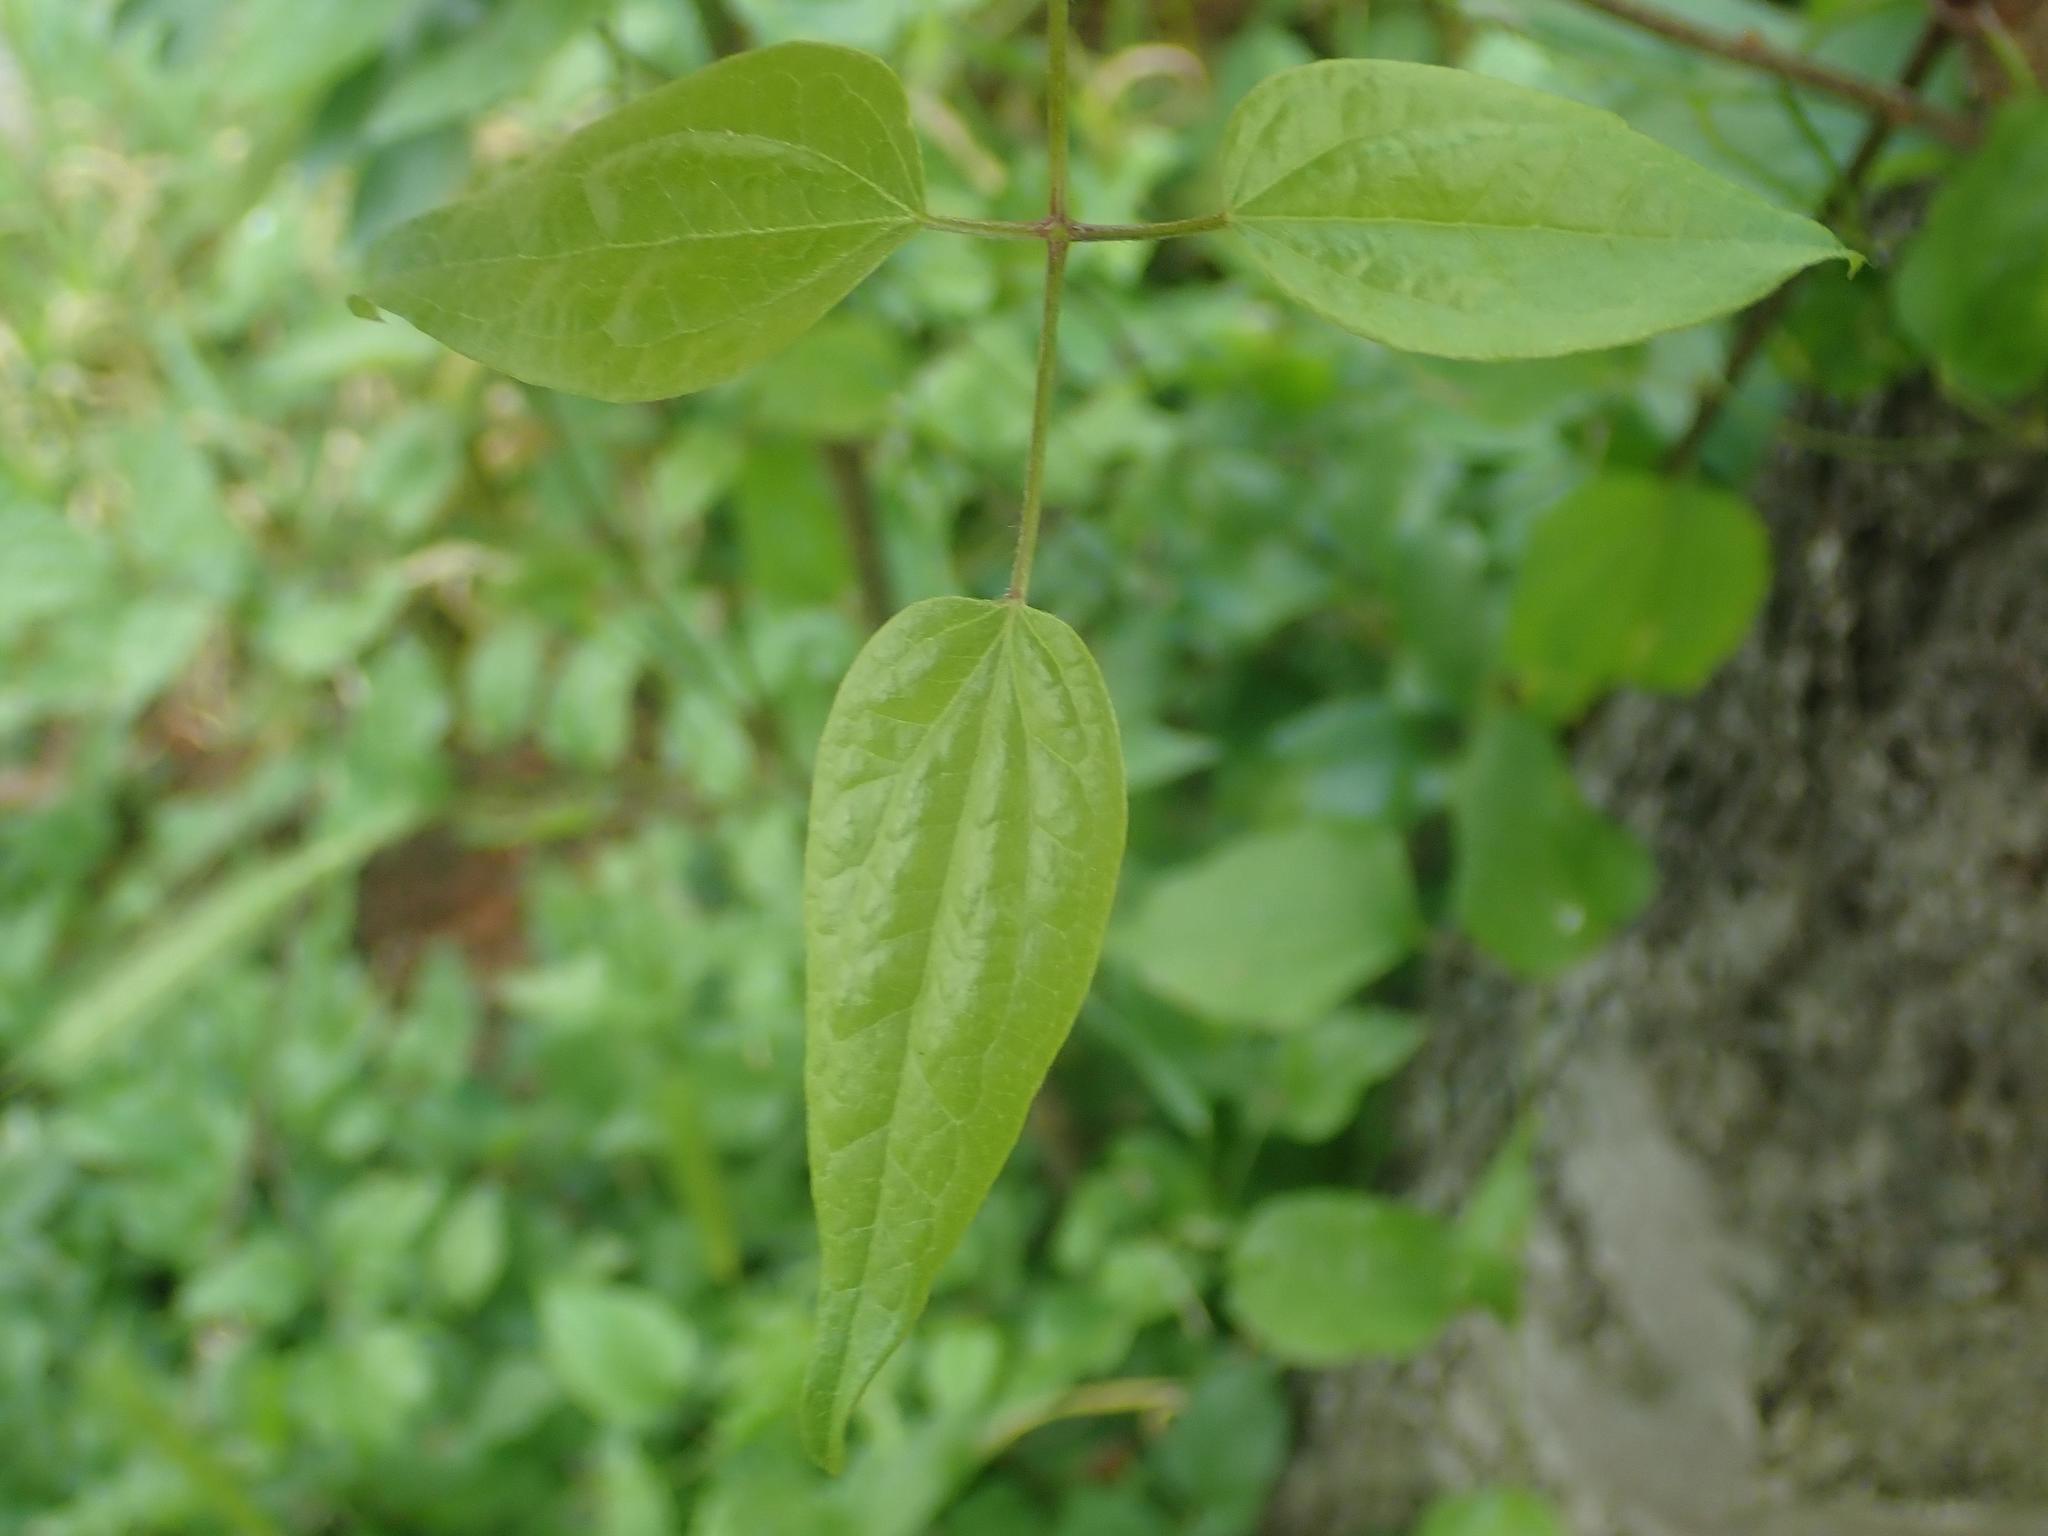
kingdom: Plantae
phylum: Tracheophyta
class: Magnoliopsida
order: Ranunculales
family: Ranunculaceae
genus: Clematis
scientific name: Clematis vitalba
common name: Evergreen clematis
